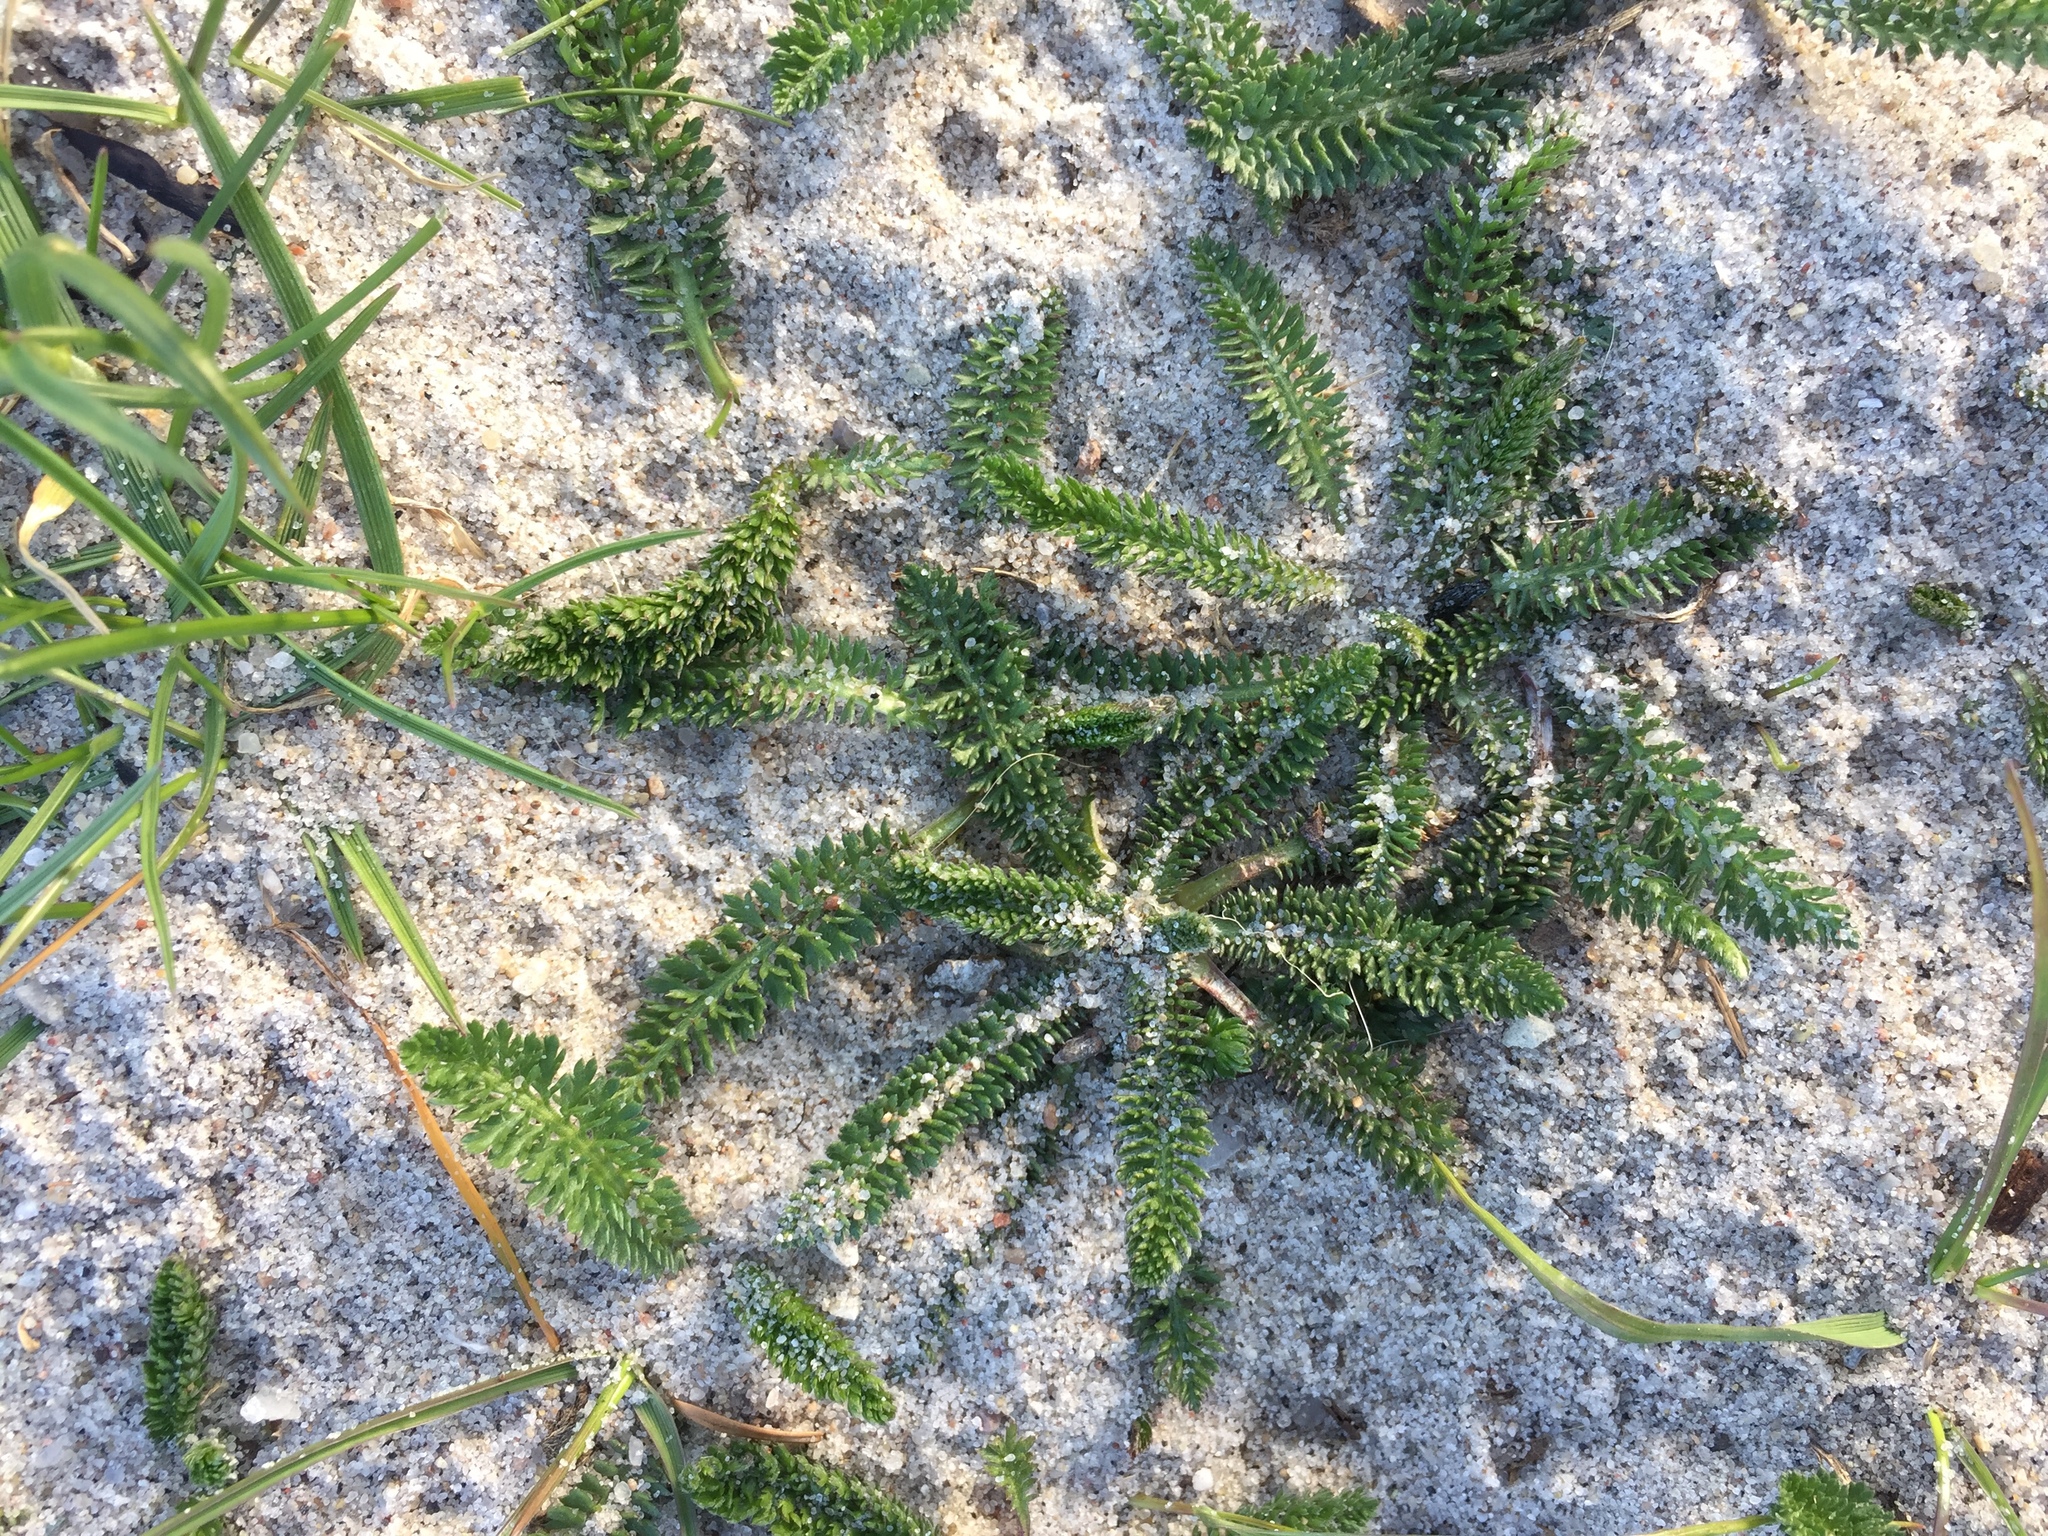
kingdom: Plantae
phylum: Tracheophyta
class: Magnoliopsida
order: Asterales
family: Asteraceae
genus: Achillea
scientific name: Achillea millefolium
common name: Yarrow
